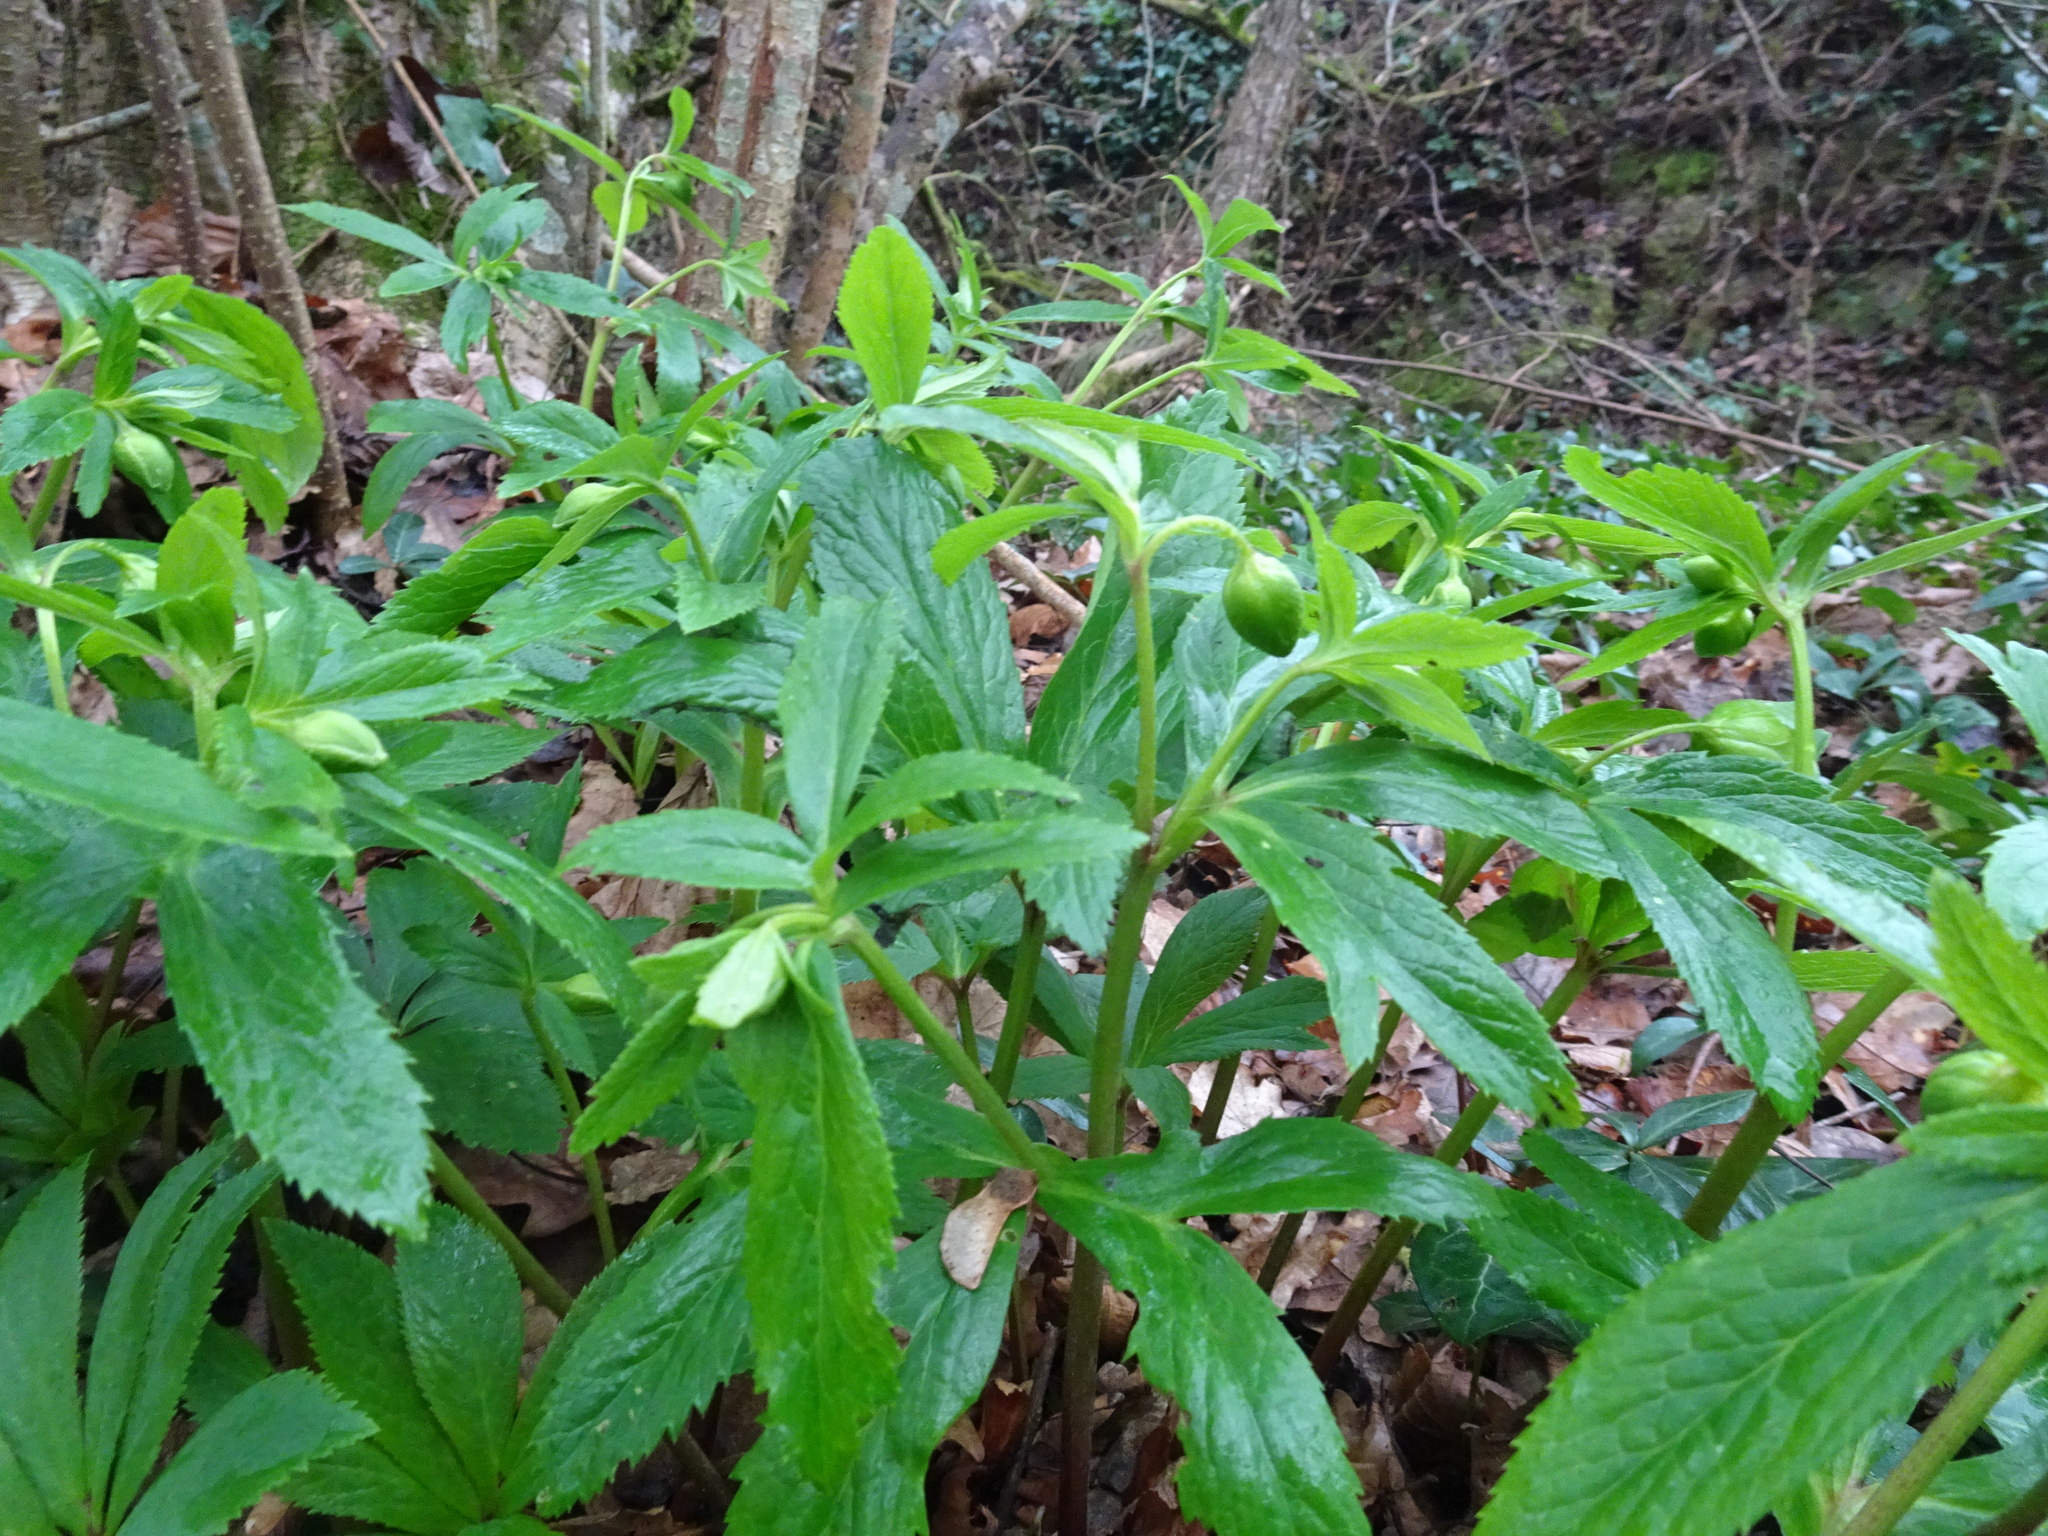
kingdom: Plantae
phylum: Tracheophyta
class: Magnoliopsida
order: Ranunculales
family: Ranunculaceae
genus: Helleborus
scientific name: Helleborus viridis
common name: Green hellebore
